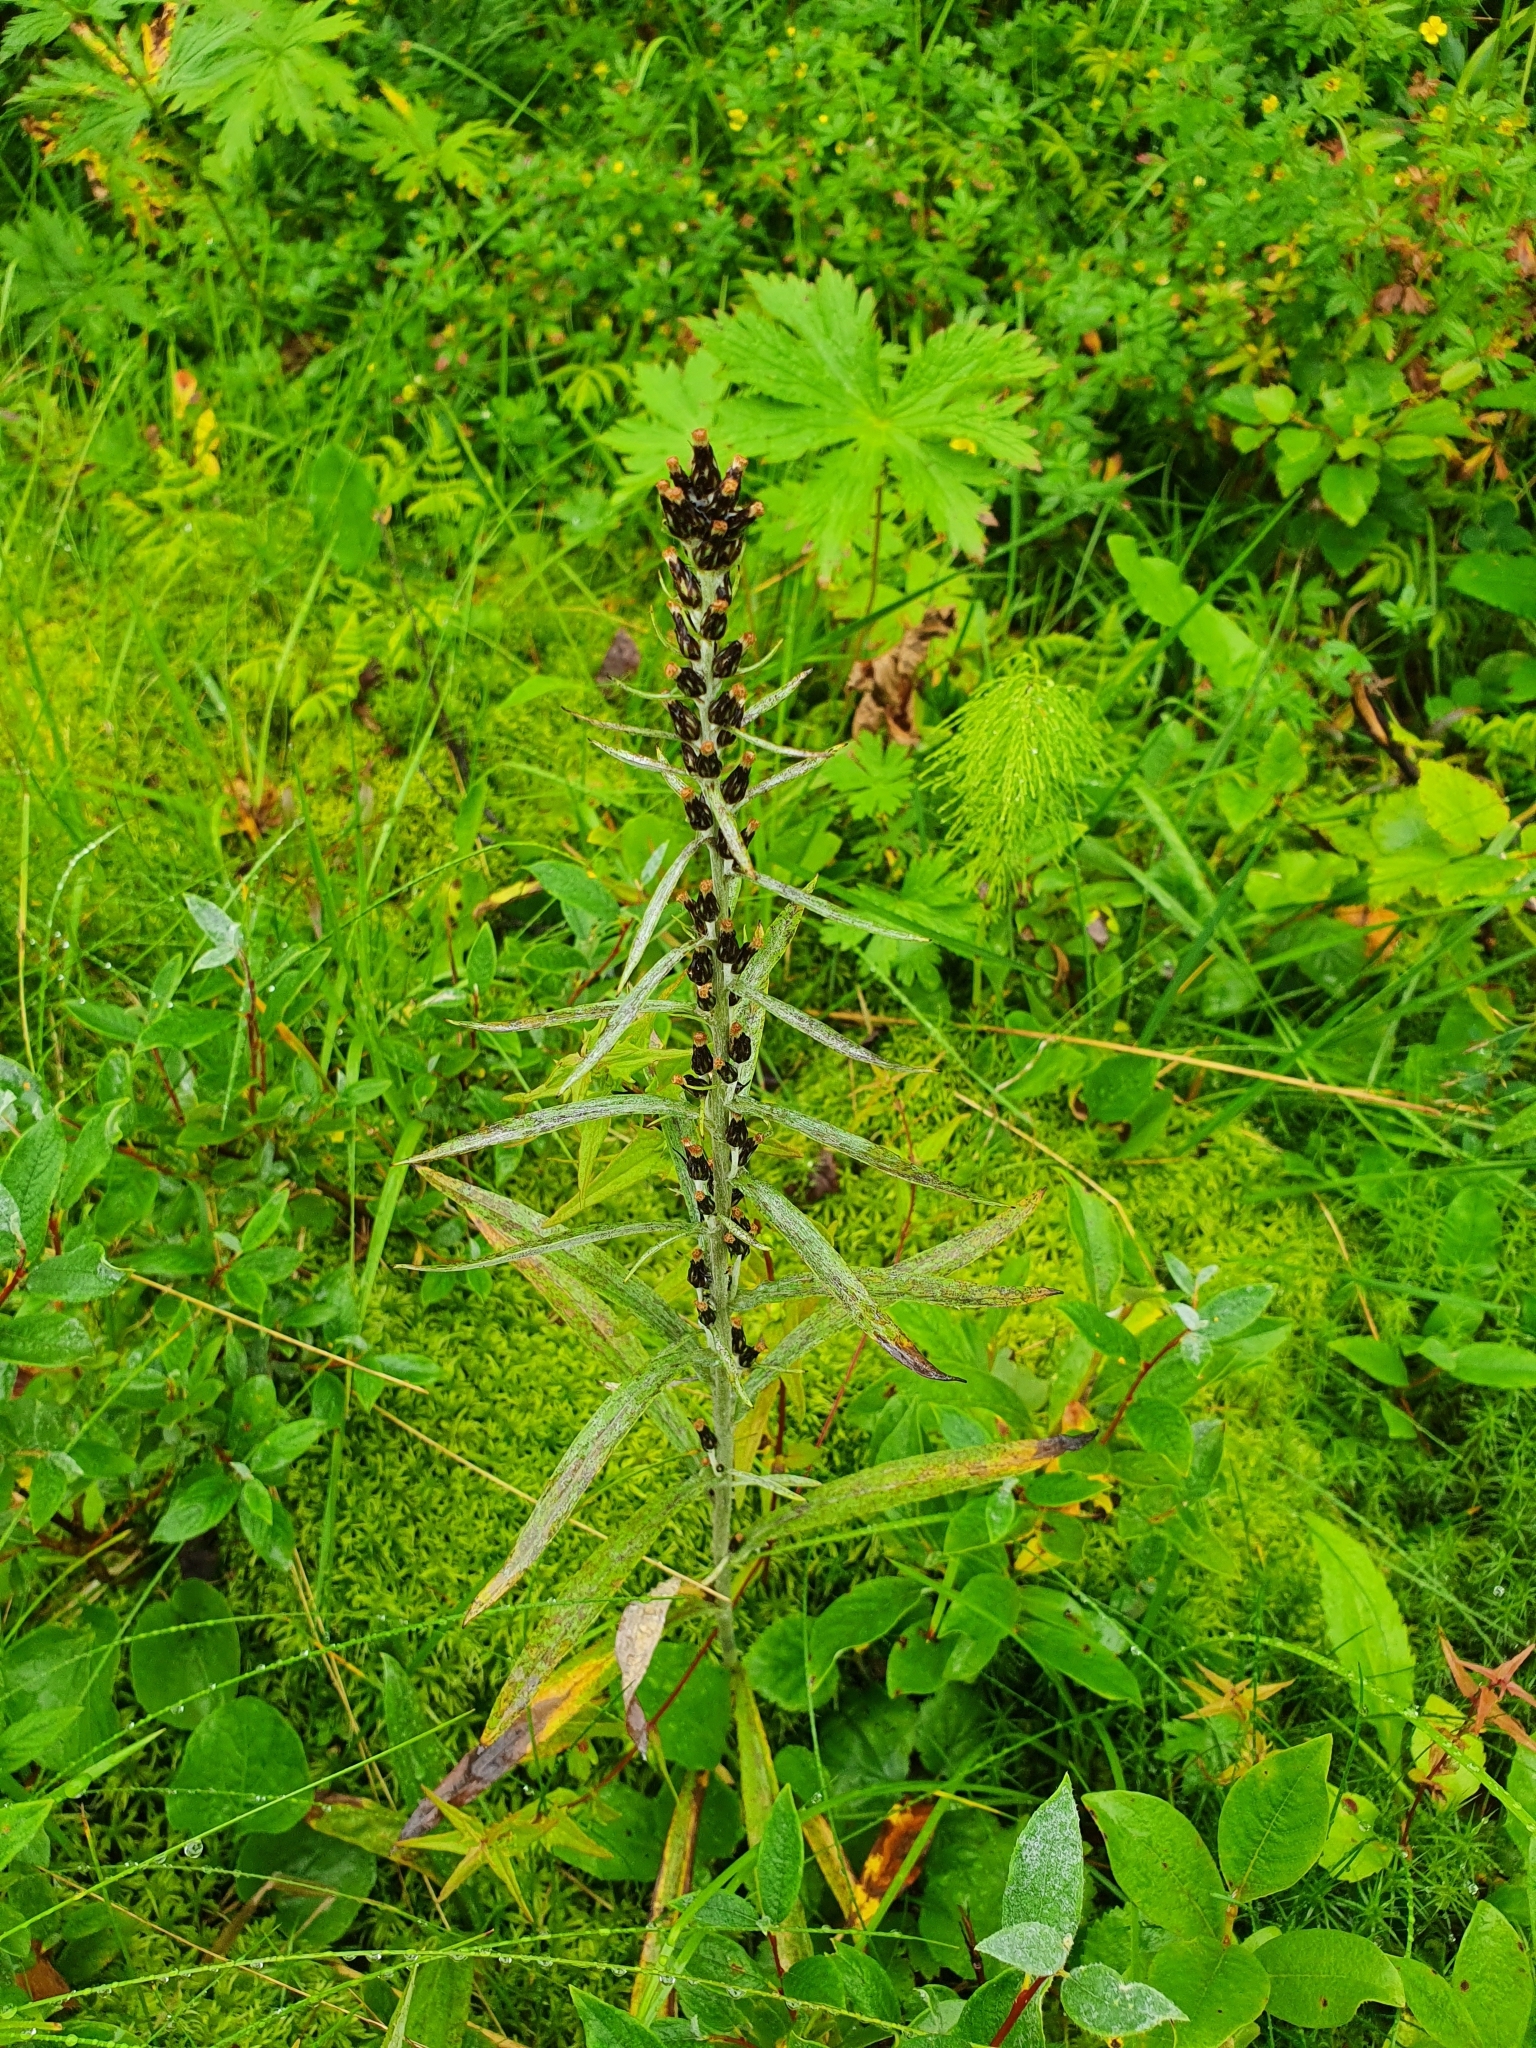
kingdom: Plantae
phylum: Tracheophyta
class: Magnoliopsida
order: Asterales
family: Asteraceae
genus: Omalotheca
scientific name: Omalotheca sylvatica
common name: Heath cudweed
